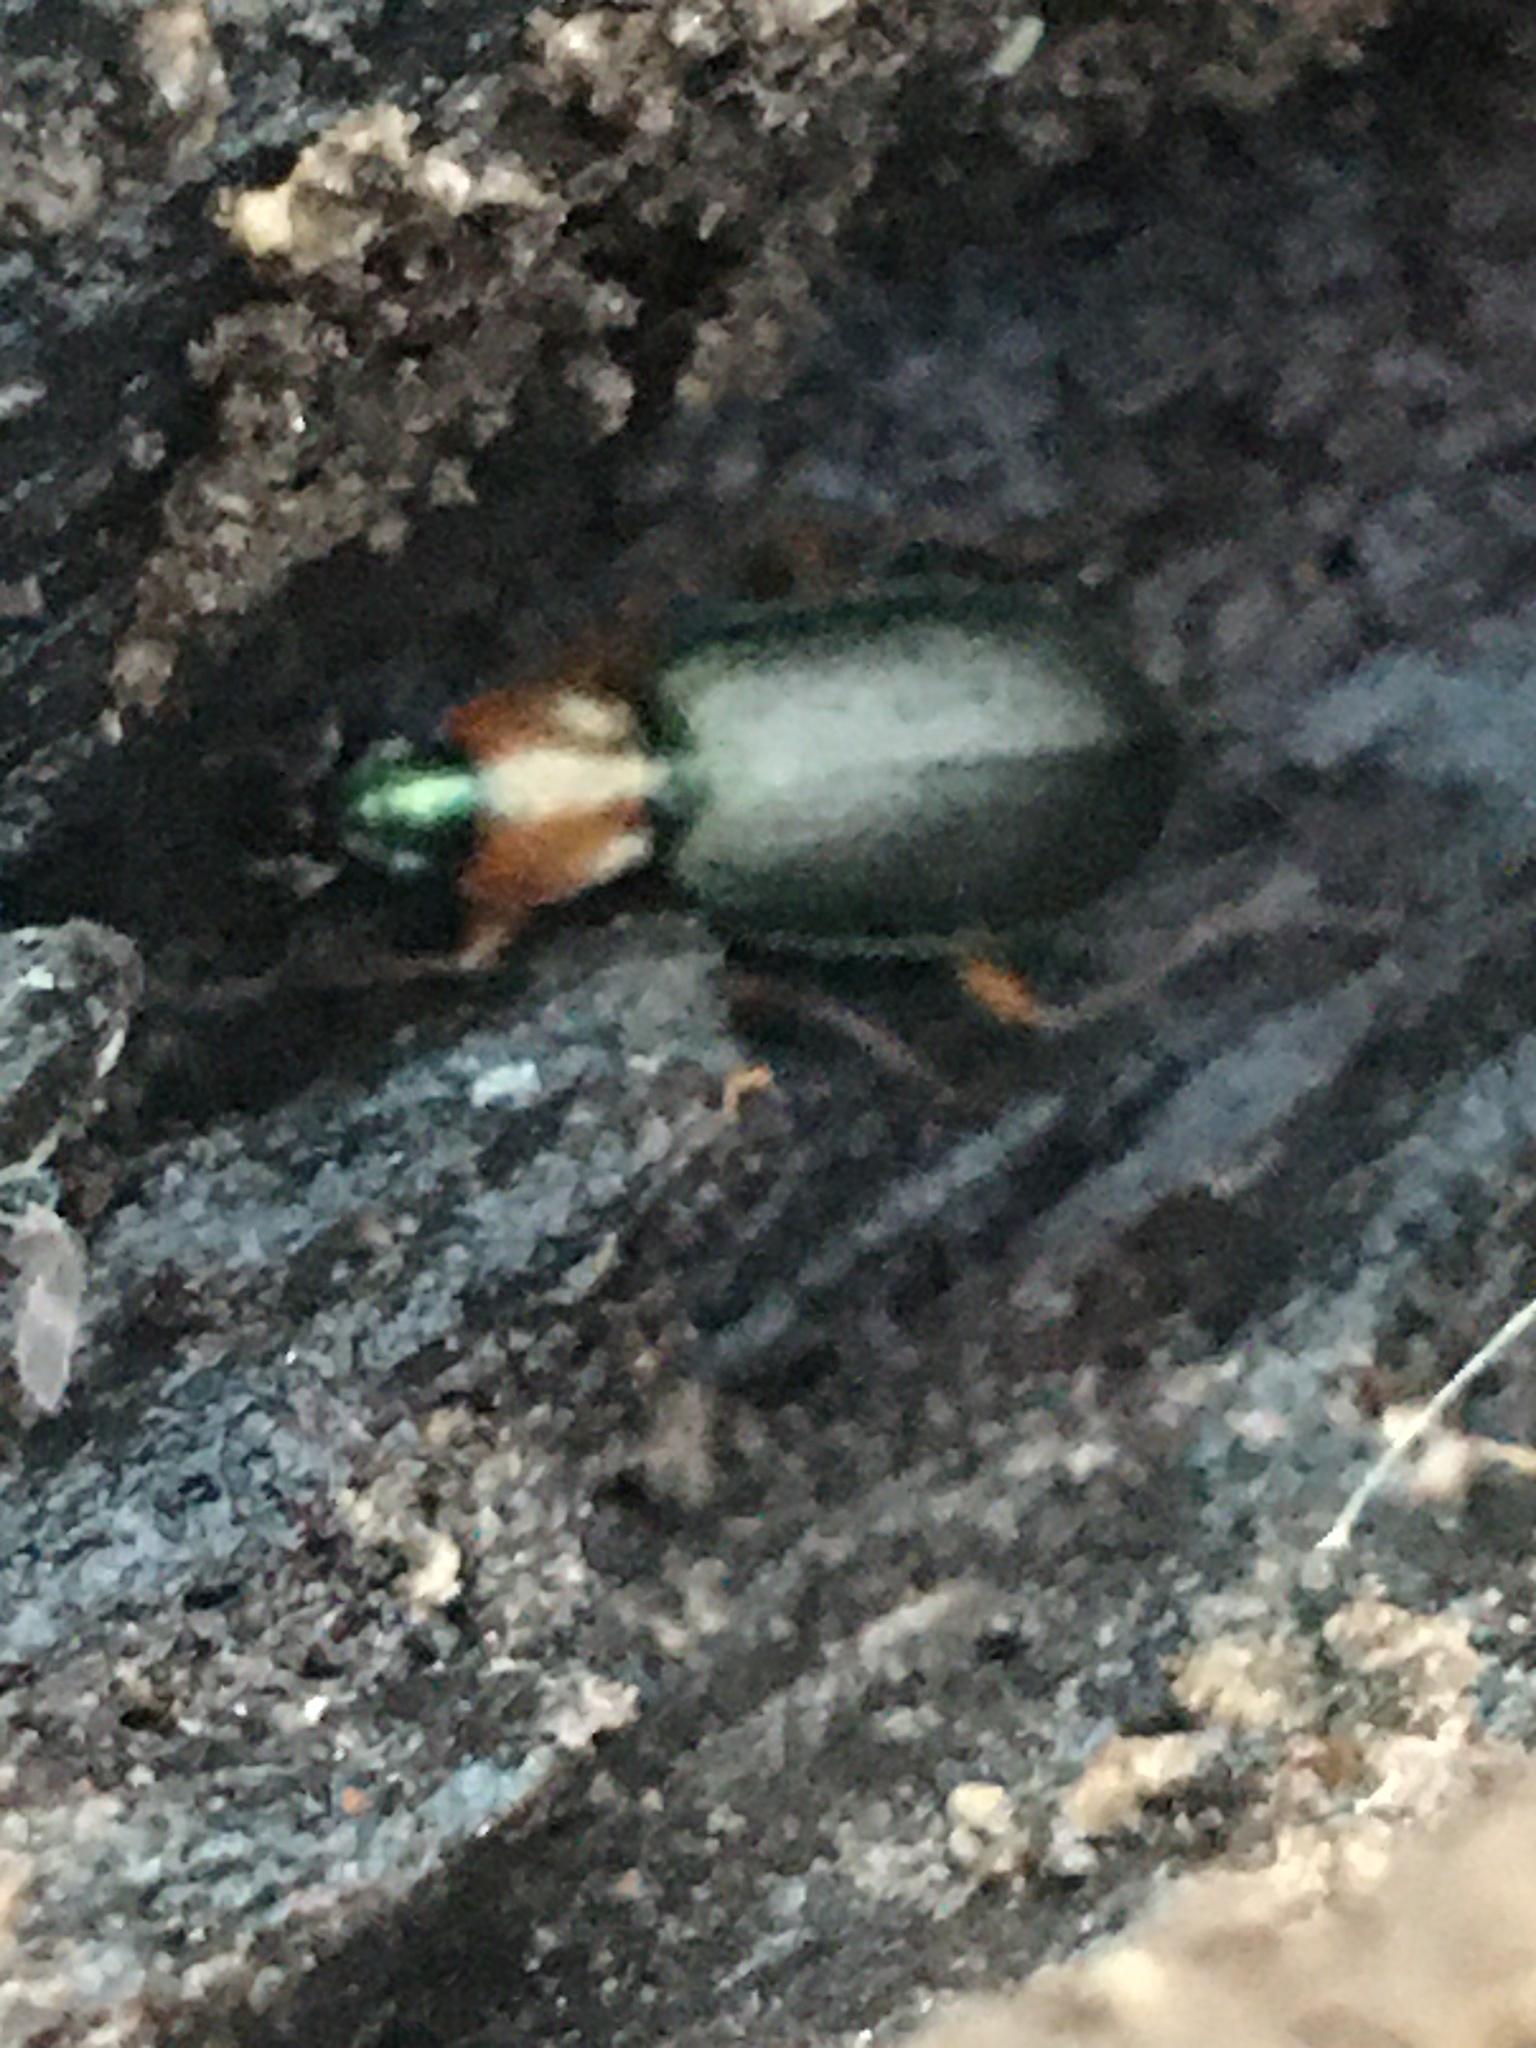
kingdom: Animalia
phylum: Arthropoda
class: Insecta
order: Coleoptera
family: Carabidae
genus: Agonum
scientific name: Agonum decorum
